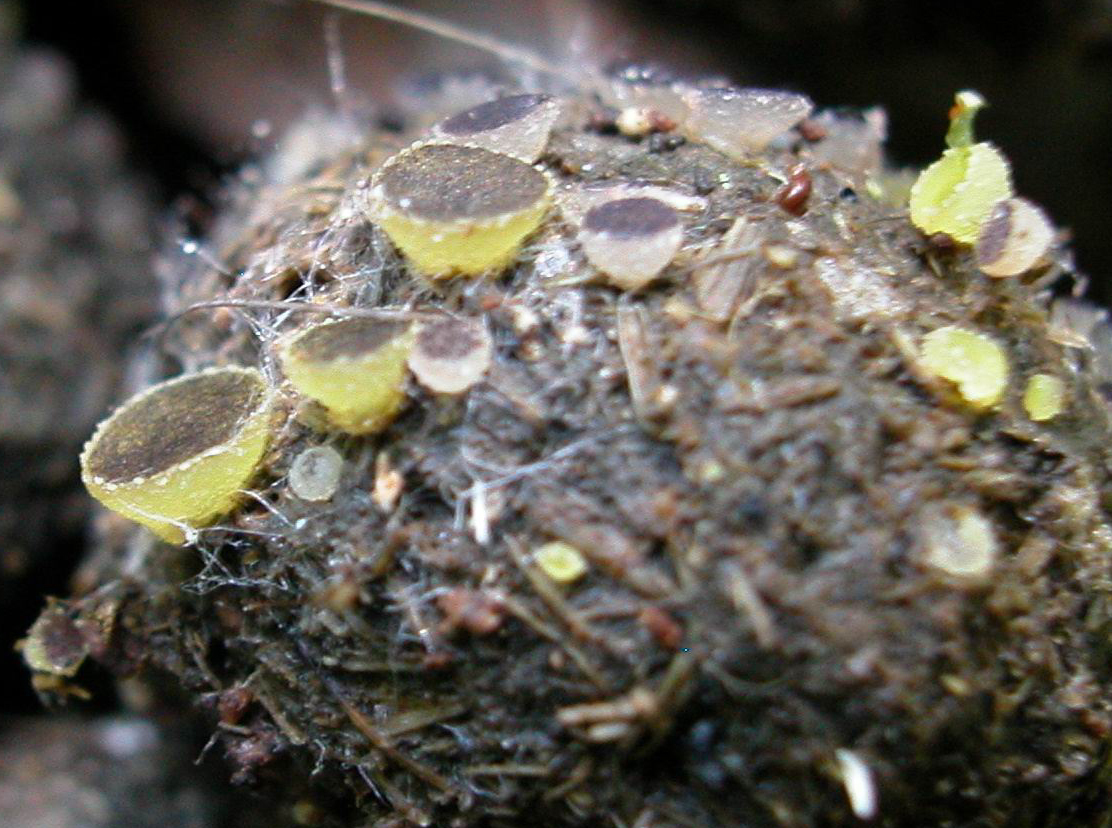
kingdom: Fungi
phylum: Ascomycota
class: Pezizomycetes
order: Pezizales
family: Ascobolaceae
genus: Ascobolus
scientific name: Ascobolus furfuraceus
